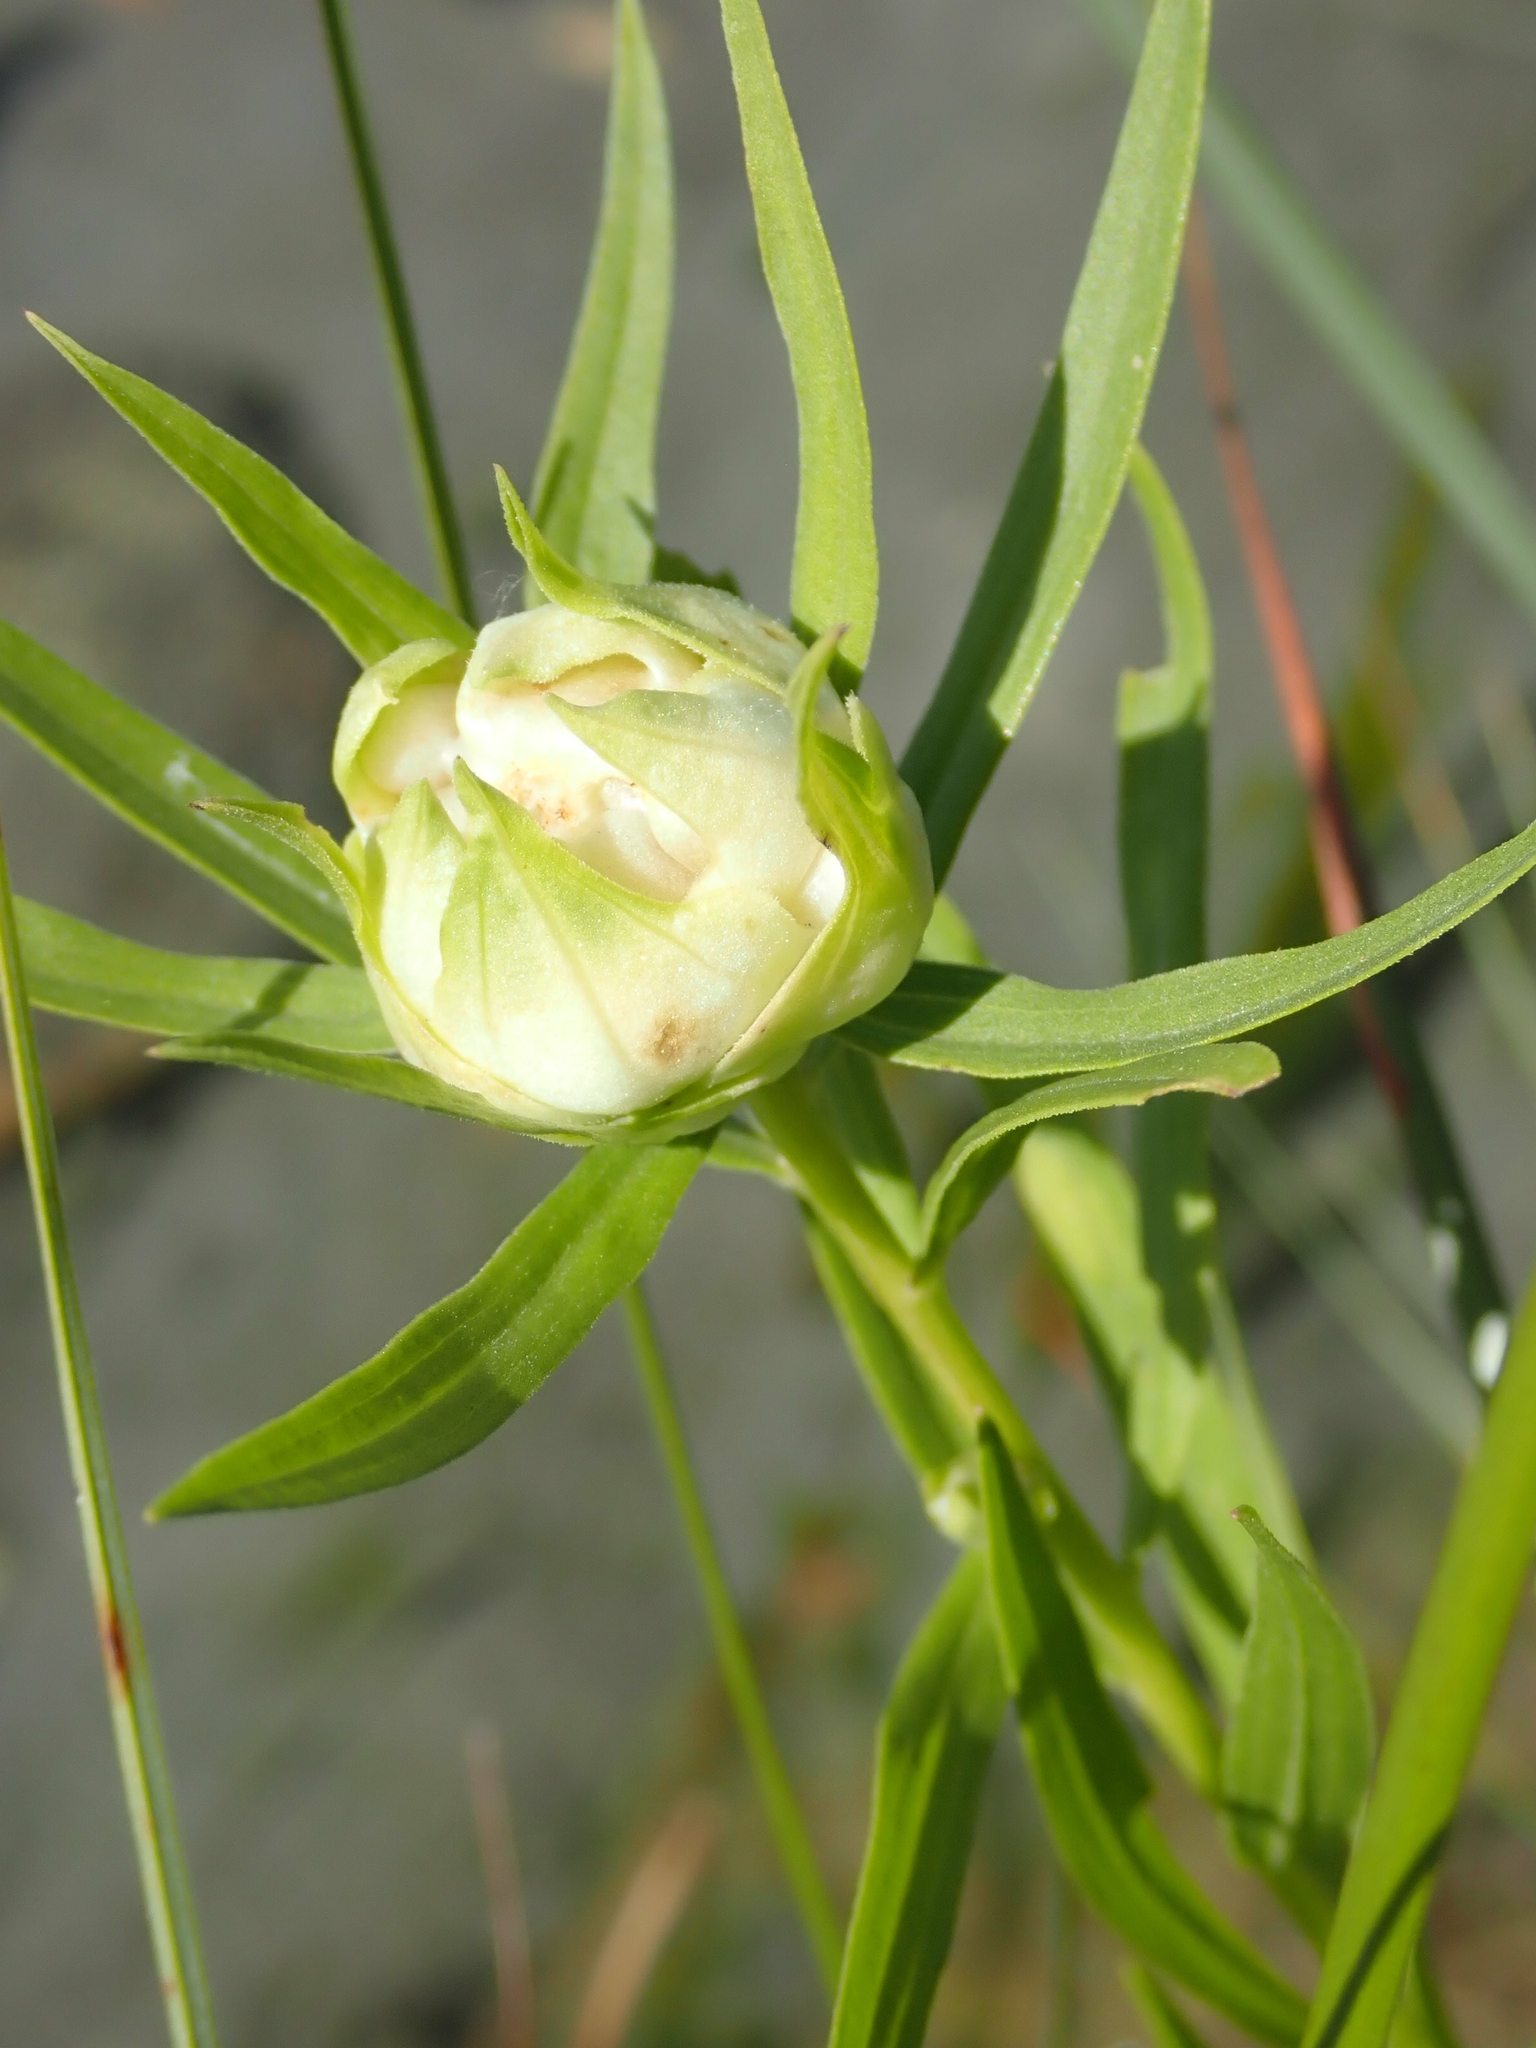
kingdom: Animalia
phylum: Arthropoda
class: Insecta
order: Diptera
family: Cecidomyiidae
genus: Rhopalomyia
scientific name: Rhopalomyia lobata
